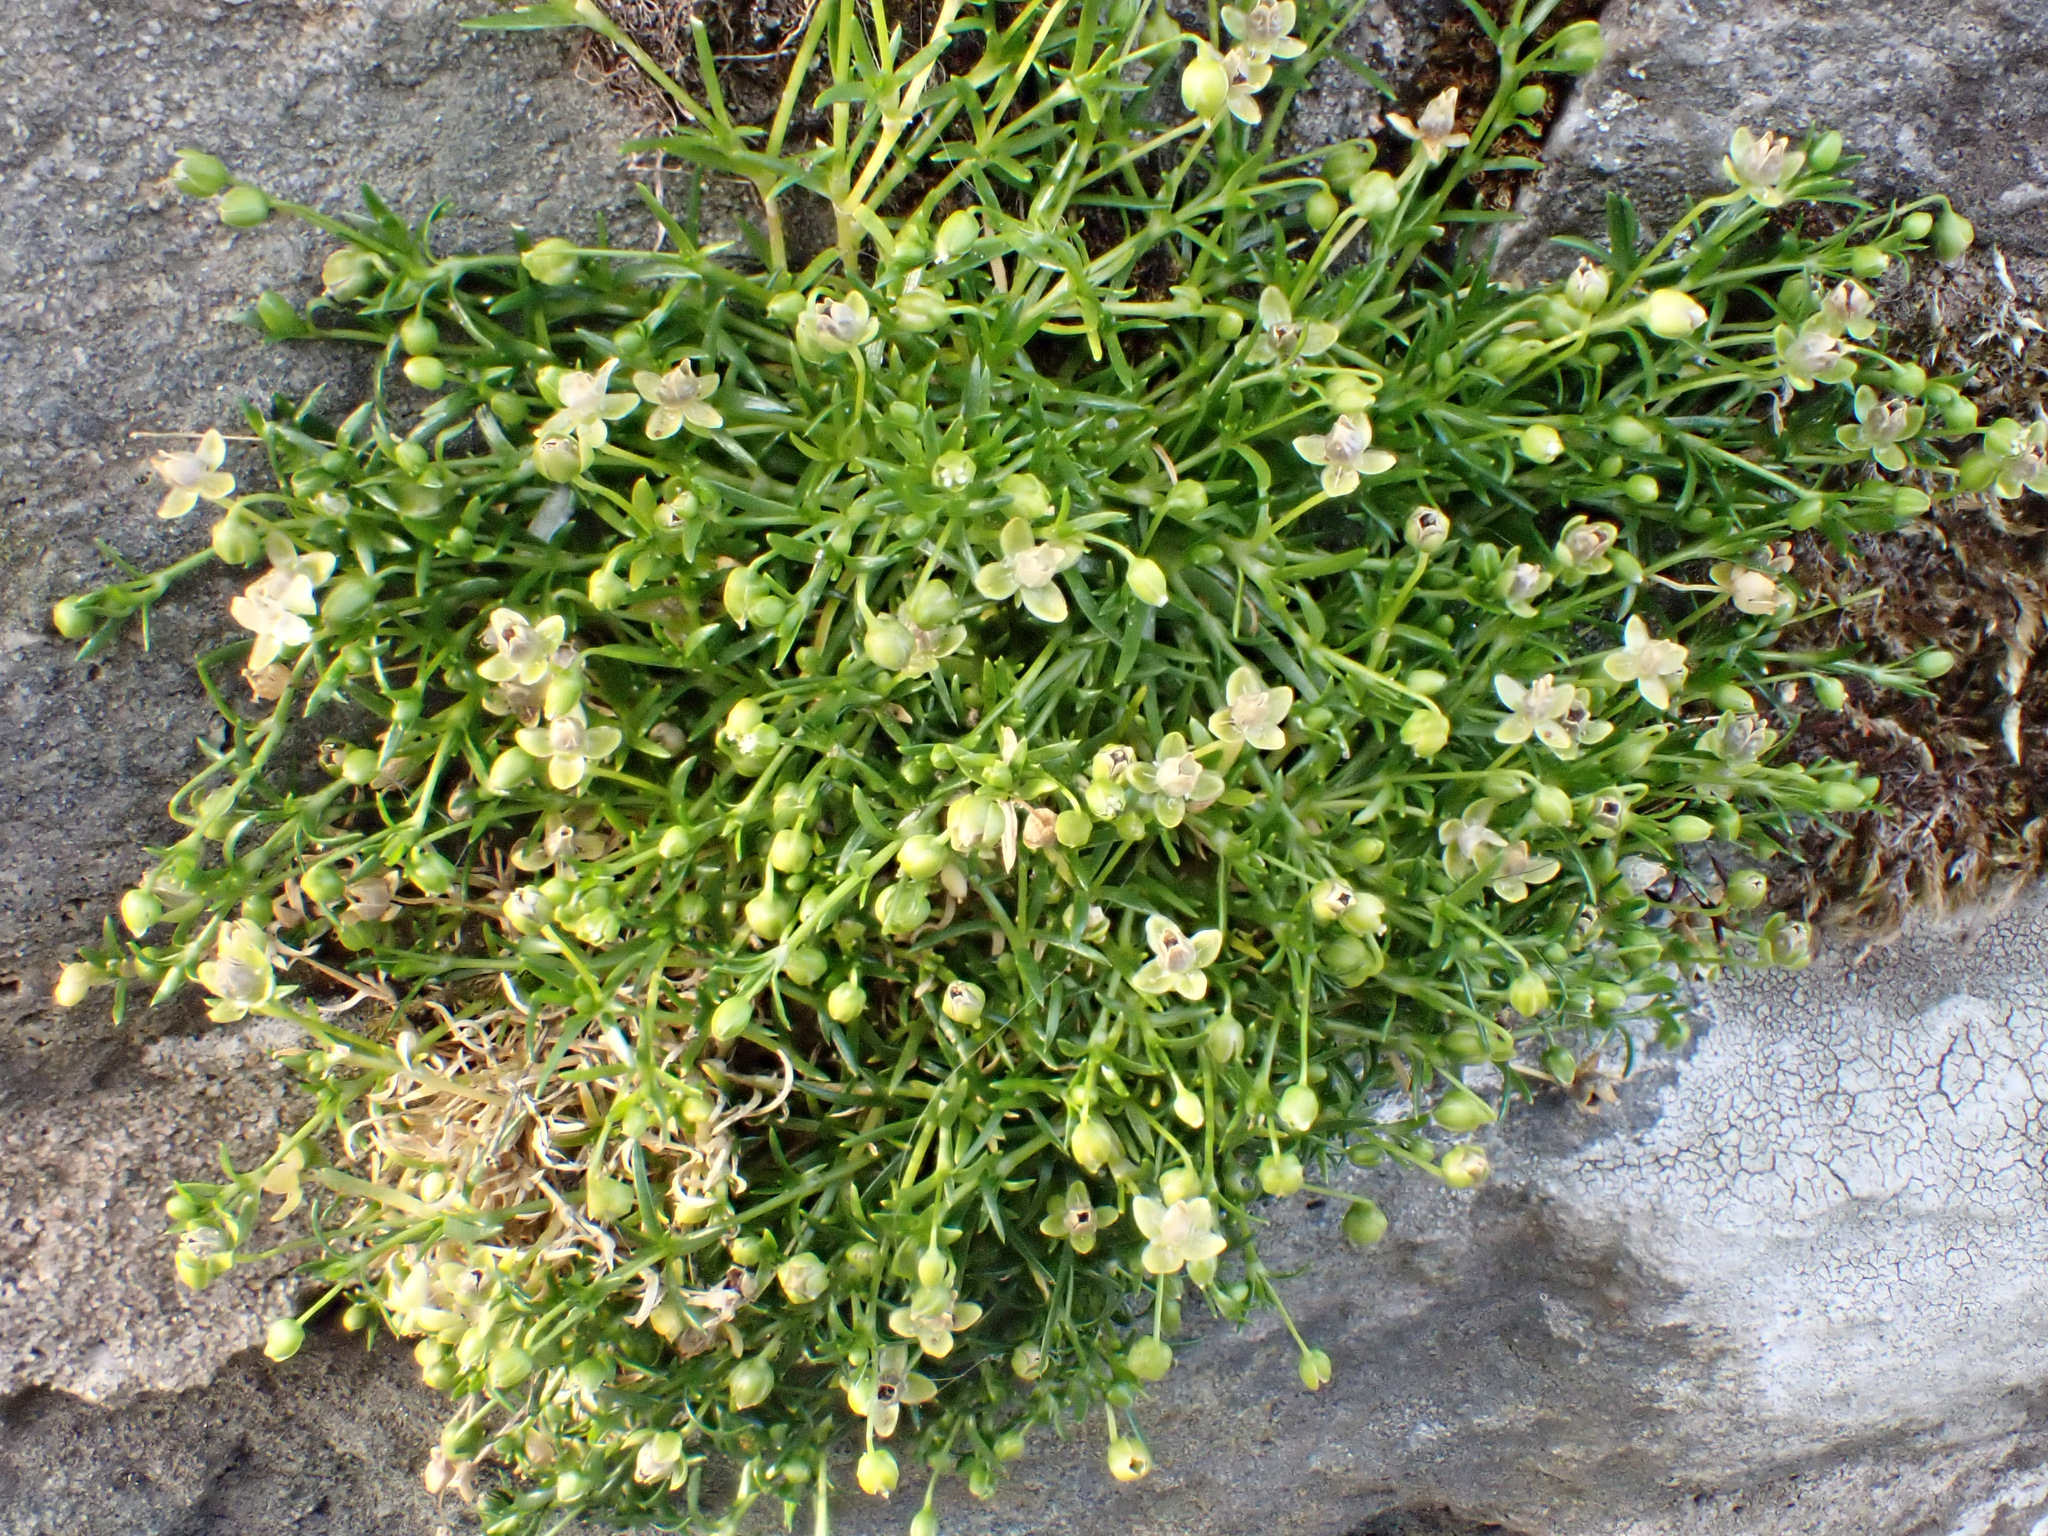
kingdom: Plantae
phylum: Tracheophyta
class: Magnoliopsida
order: Caryophyllales
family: Caryophyllaceae
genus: Sagina
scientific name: Sagina procumbens
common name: Procumbent pearlwort
